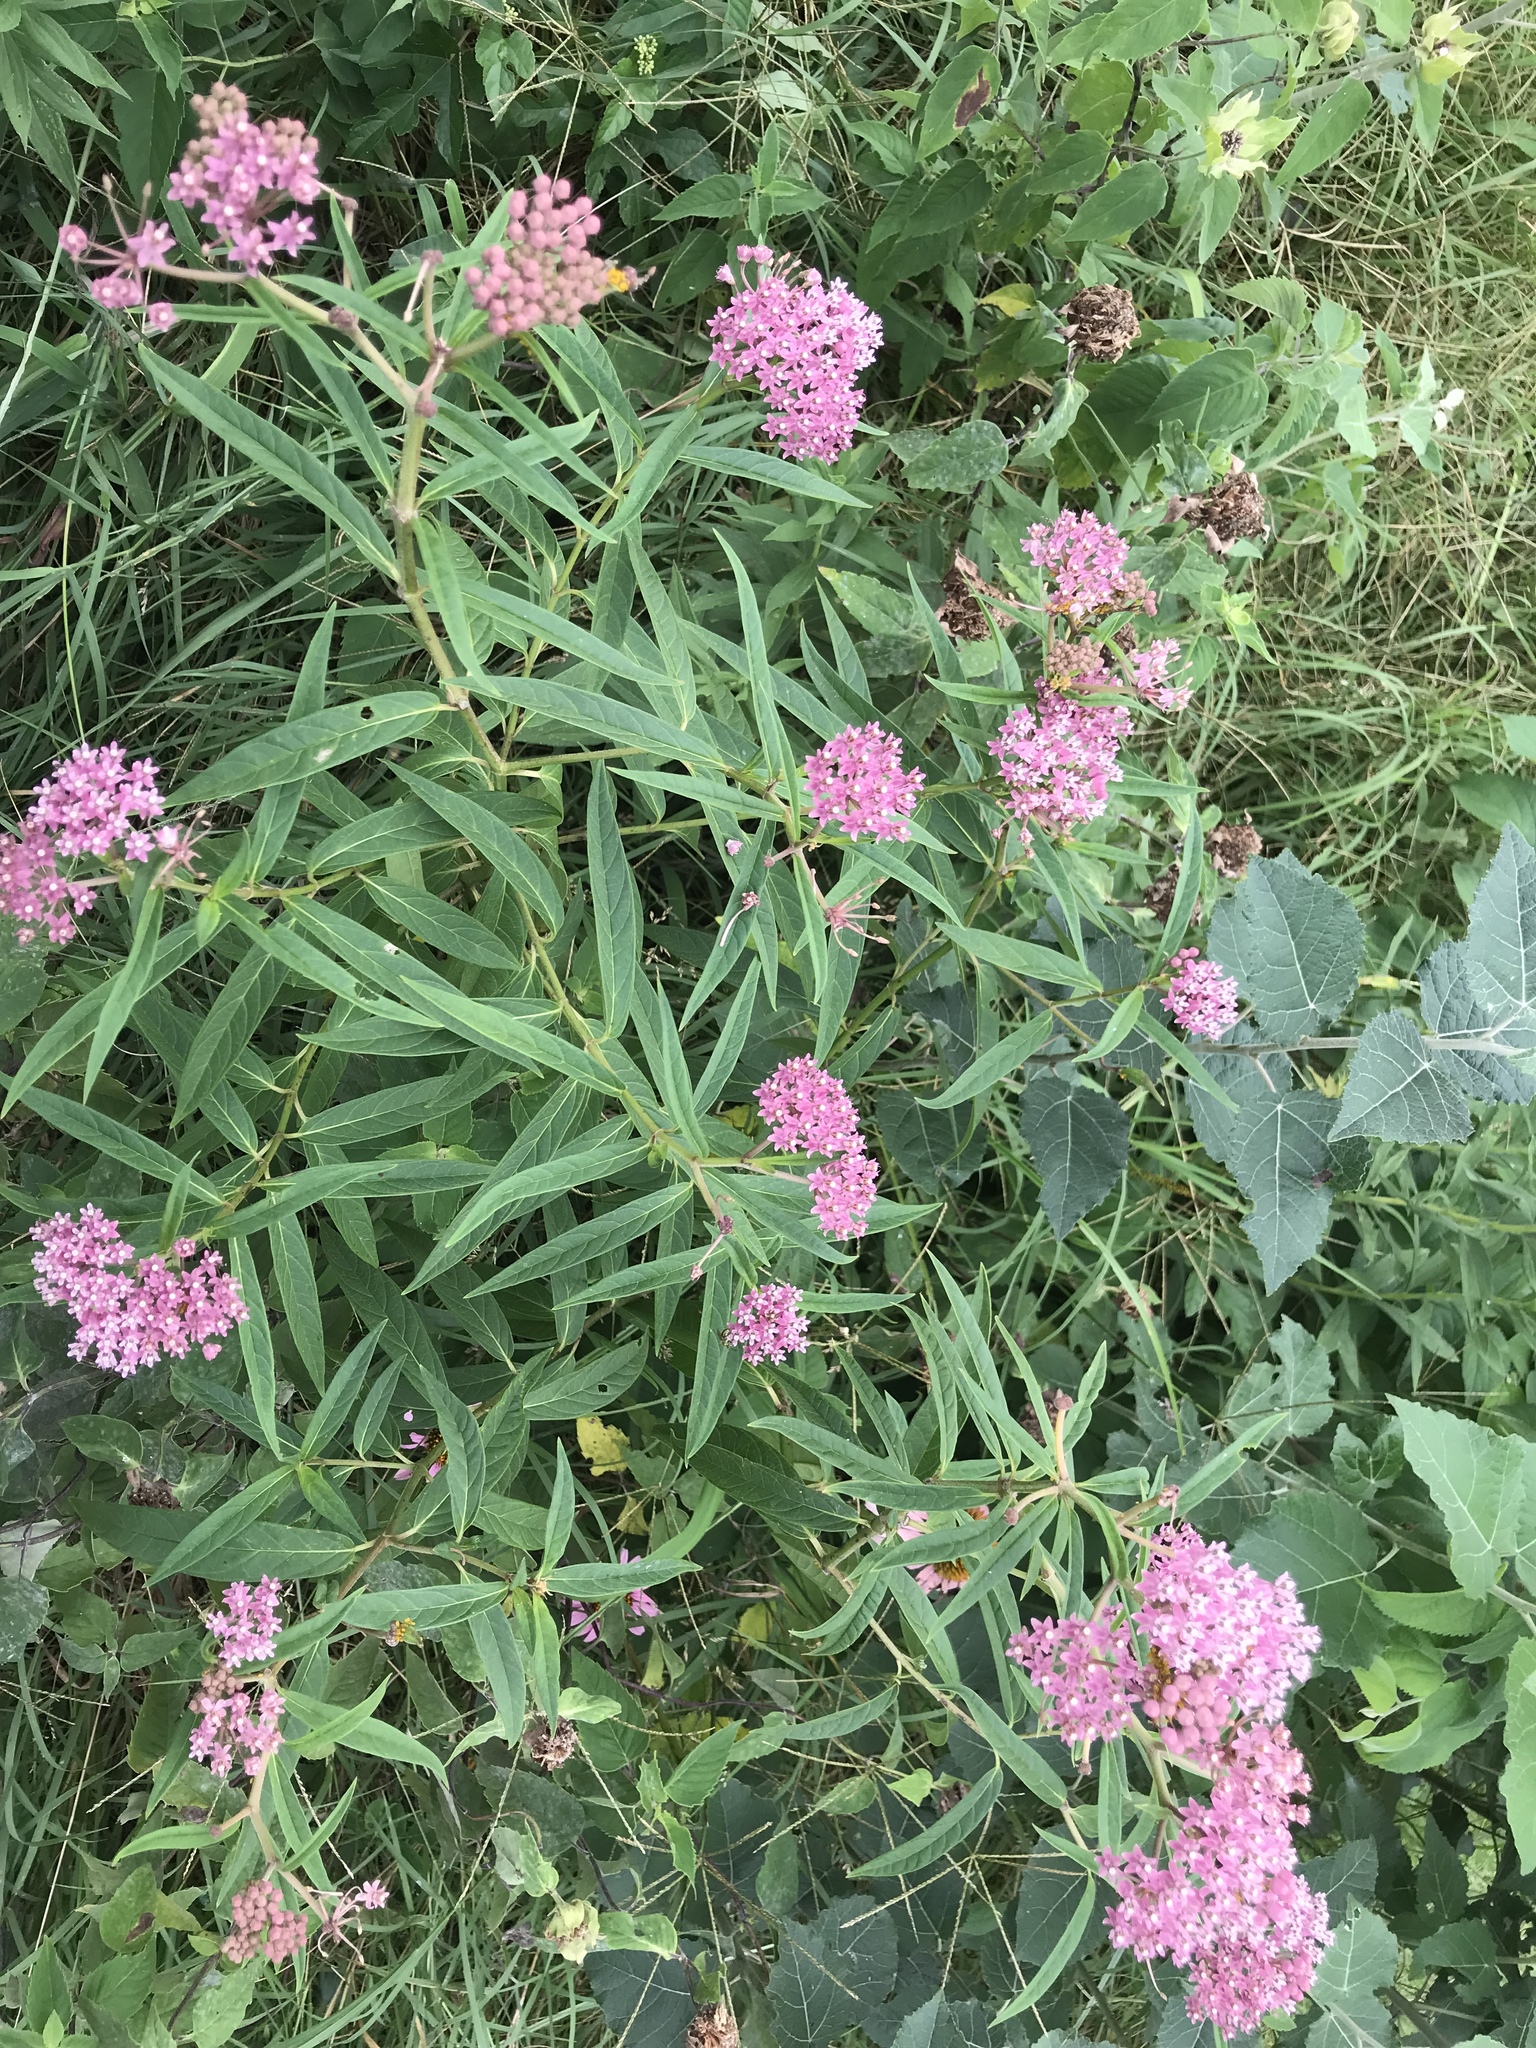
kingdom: Plantae
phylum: Tracheophyta
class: Magnoliopsida
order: Gentianales
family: Apocynaceae
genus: Asclepias
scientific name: Asclepias incarnata
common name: Swamp milkweed
